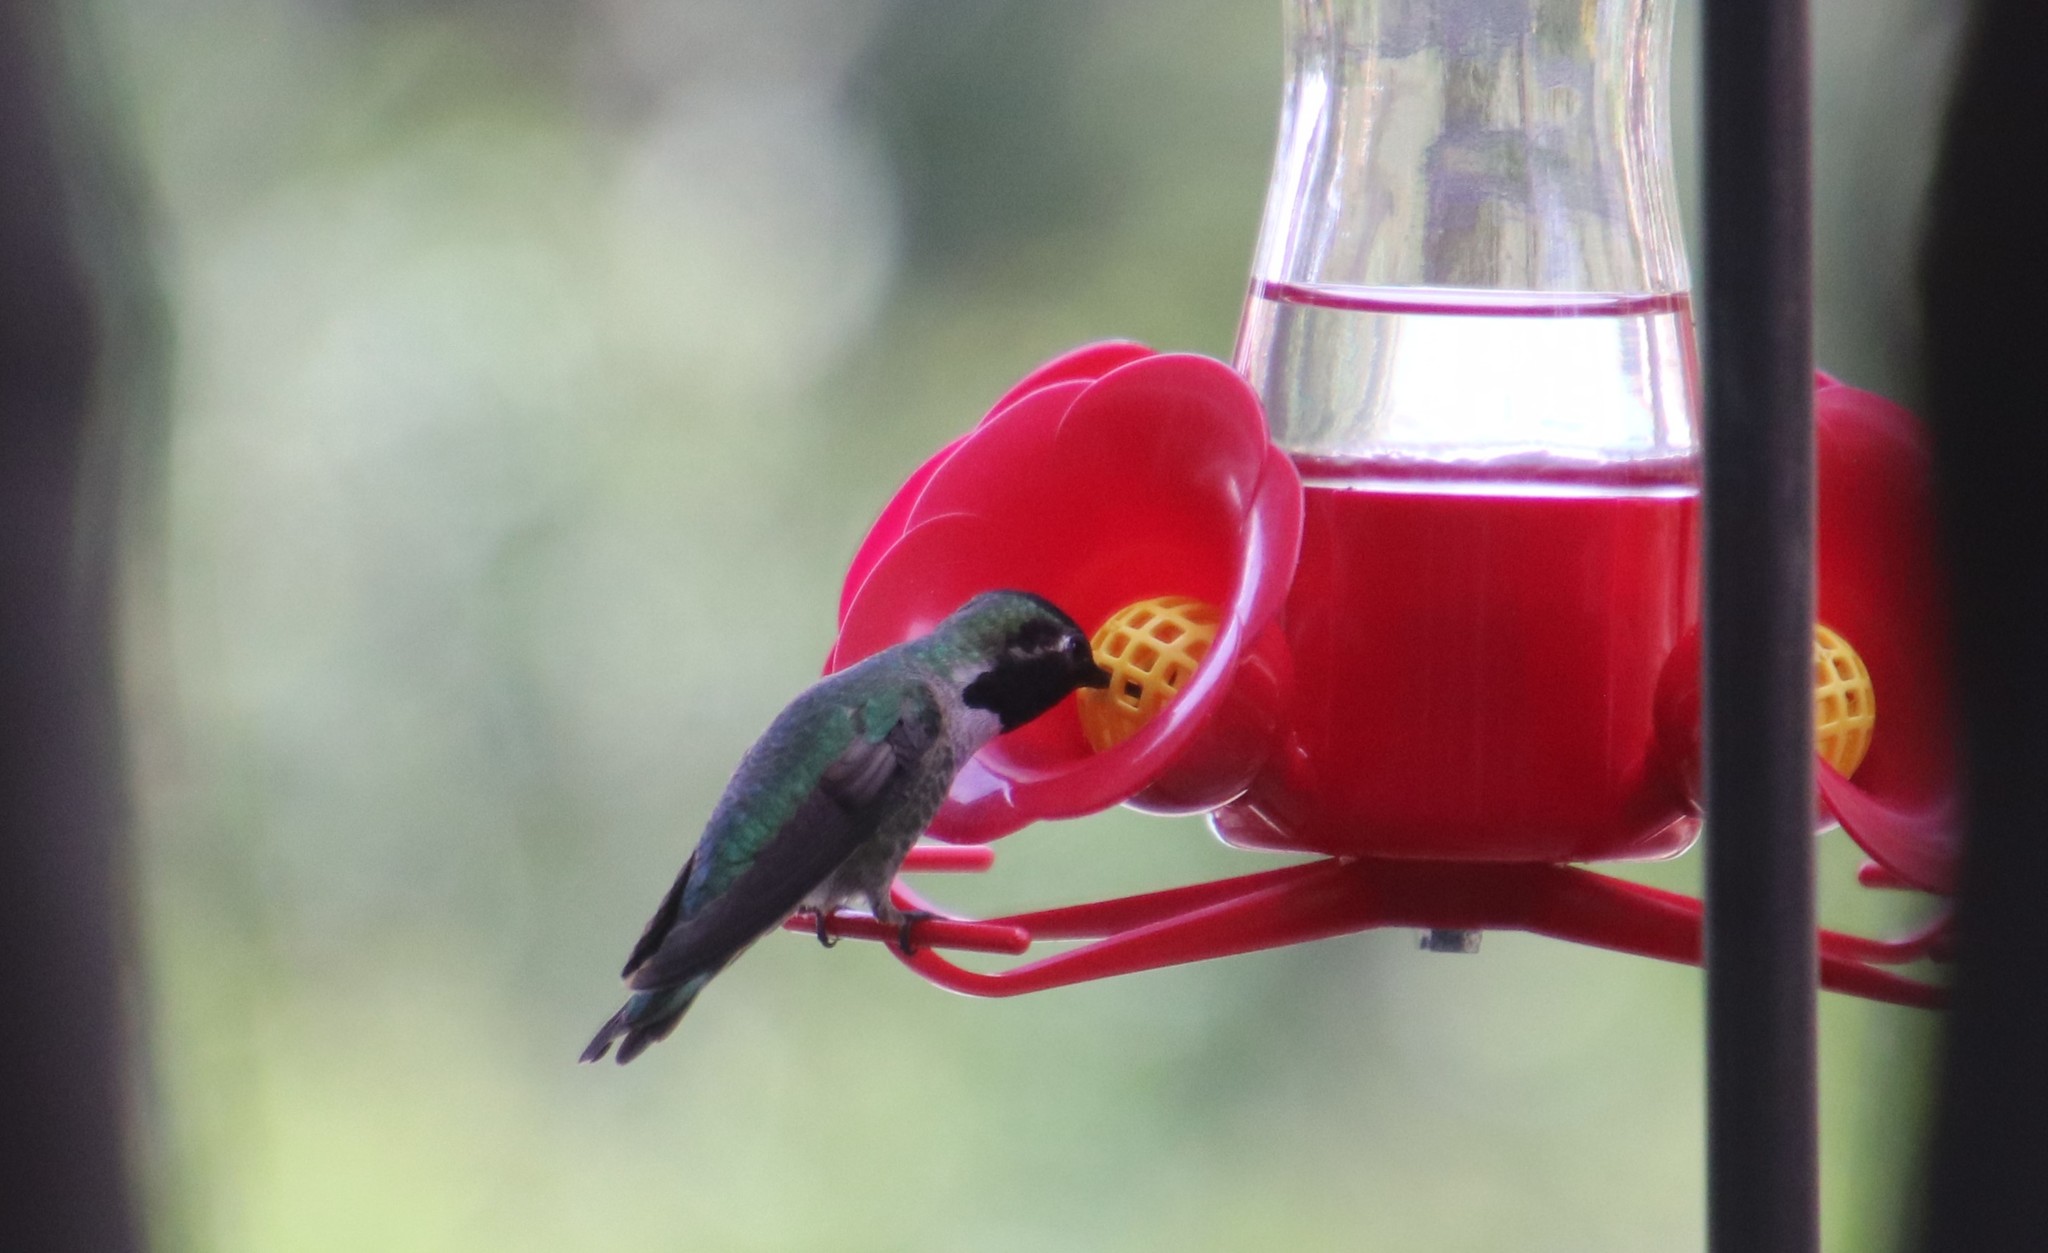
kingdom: Animalia
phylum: Chordata
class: Aves
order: Apodiformes
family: Trochilidae
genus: Calypte
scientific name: Calypte anna
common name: Anna's hummingbird
